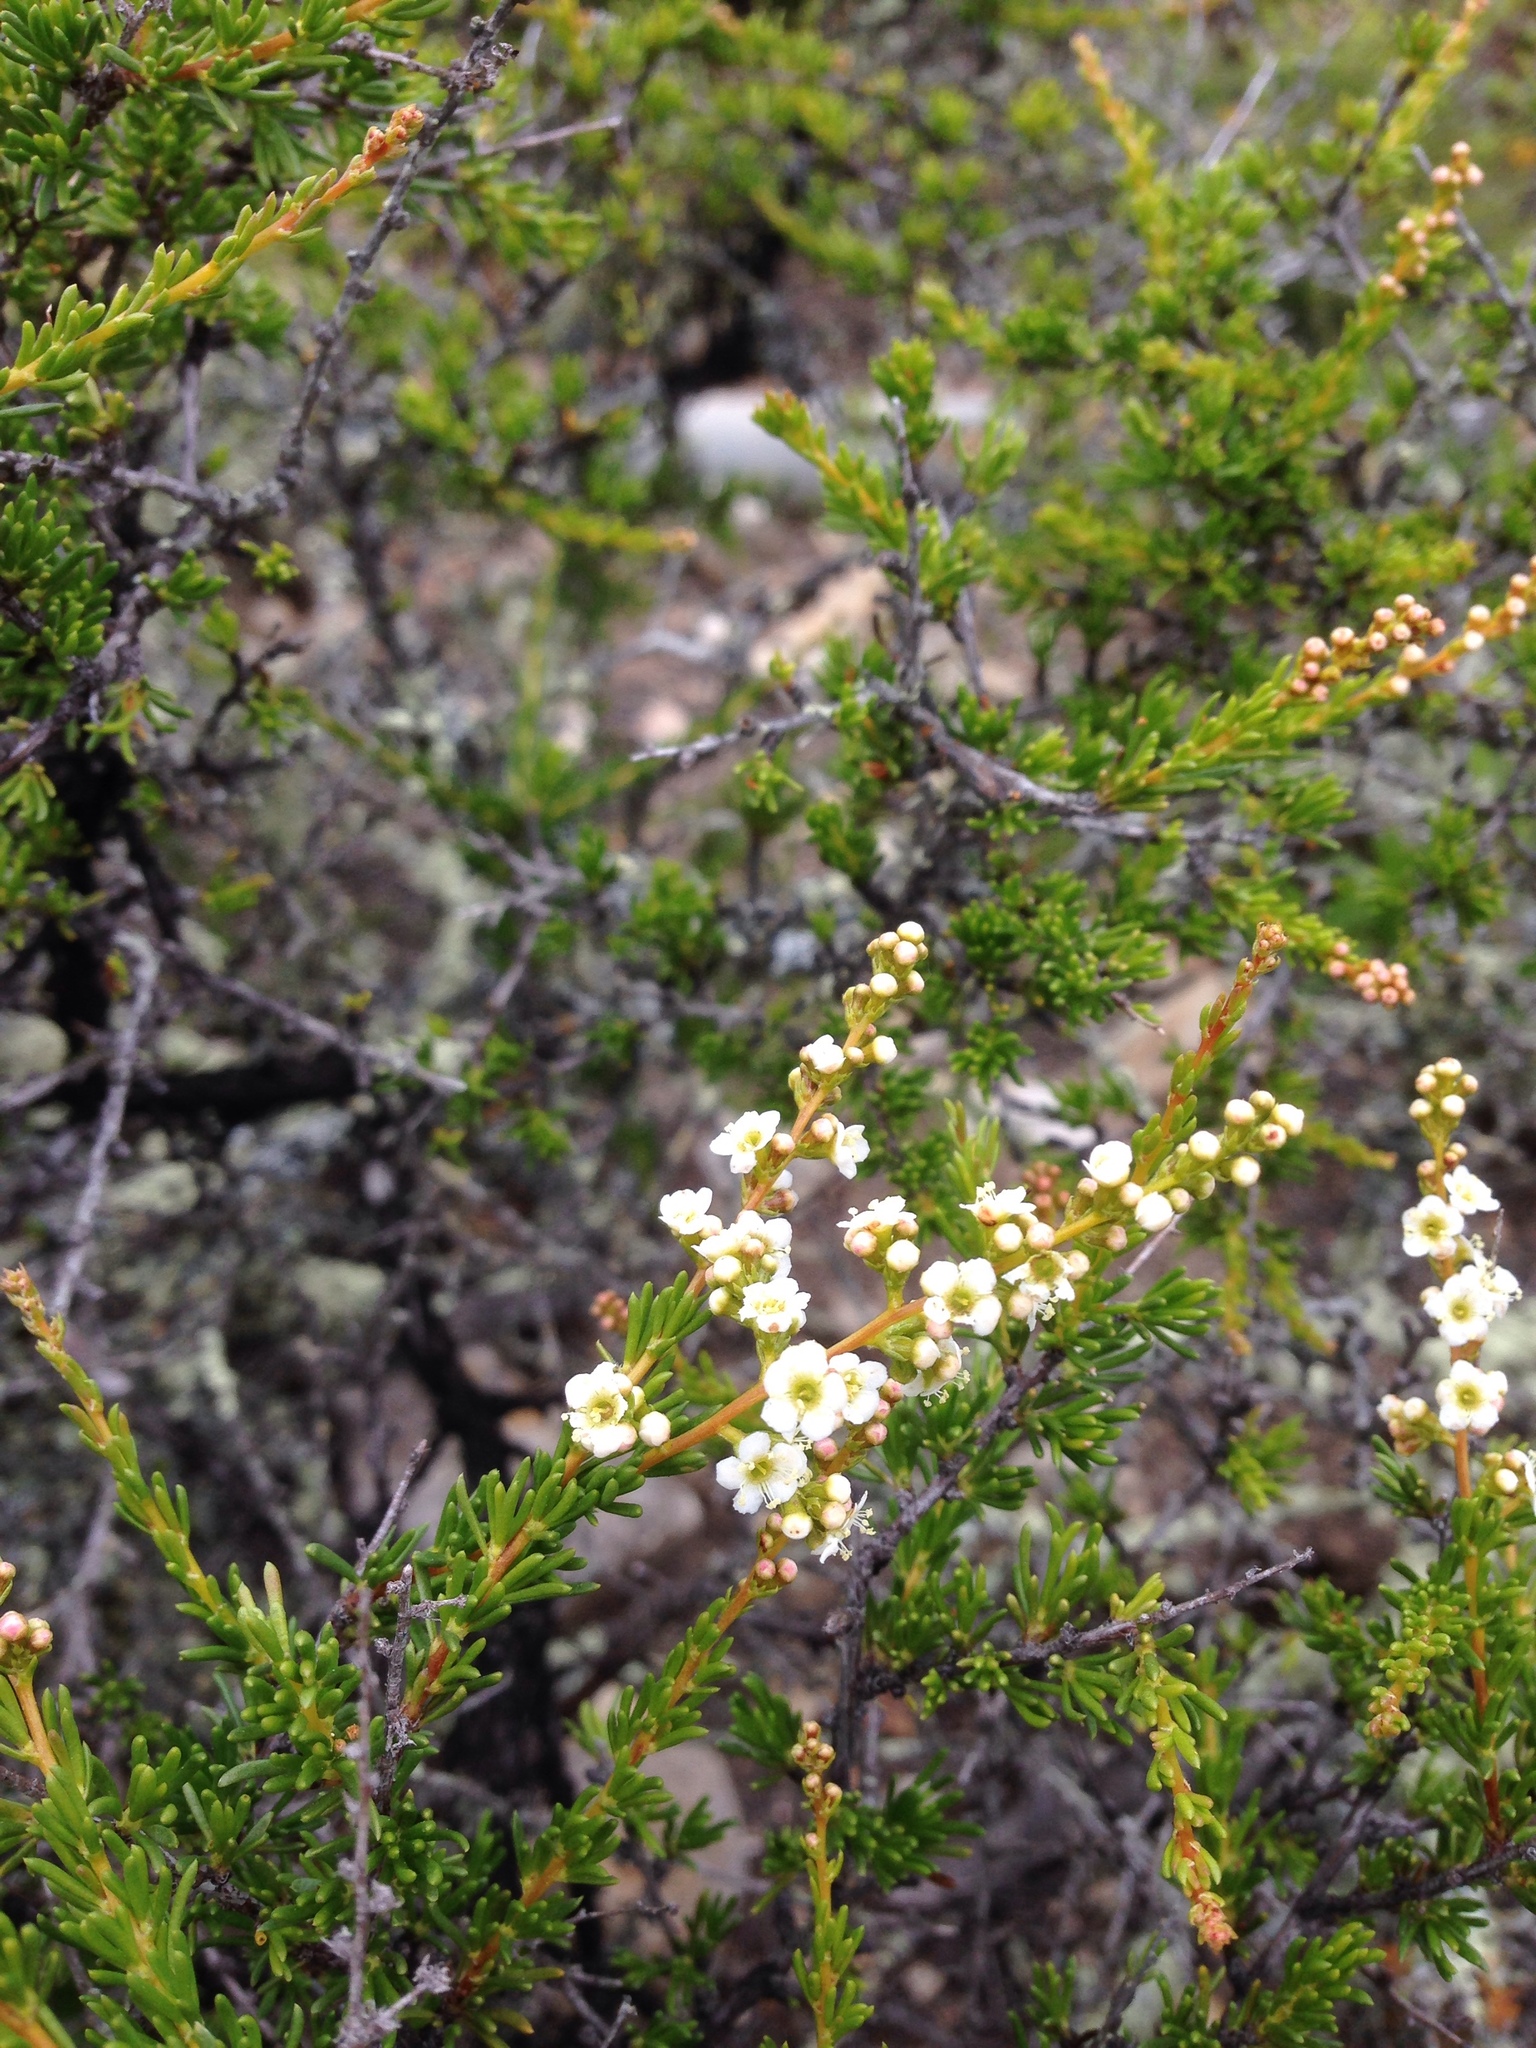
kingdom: Plantae
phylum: Tracheophyta
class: Magnoliopsida
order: Rosales
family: Rosaceae
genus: Adenostoma
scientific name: Adenostoma fasciculatum
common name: Chamise
